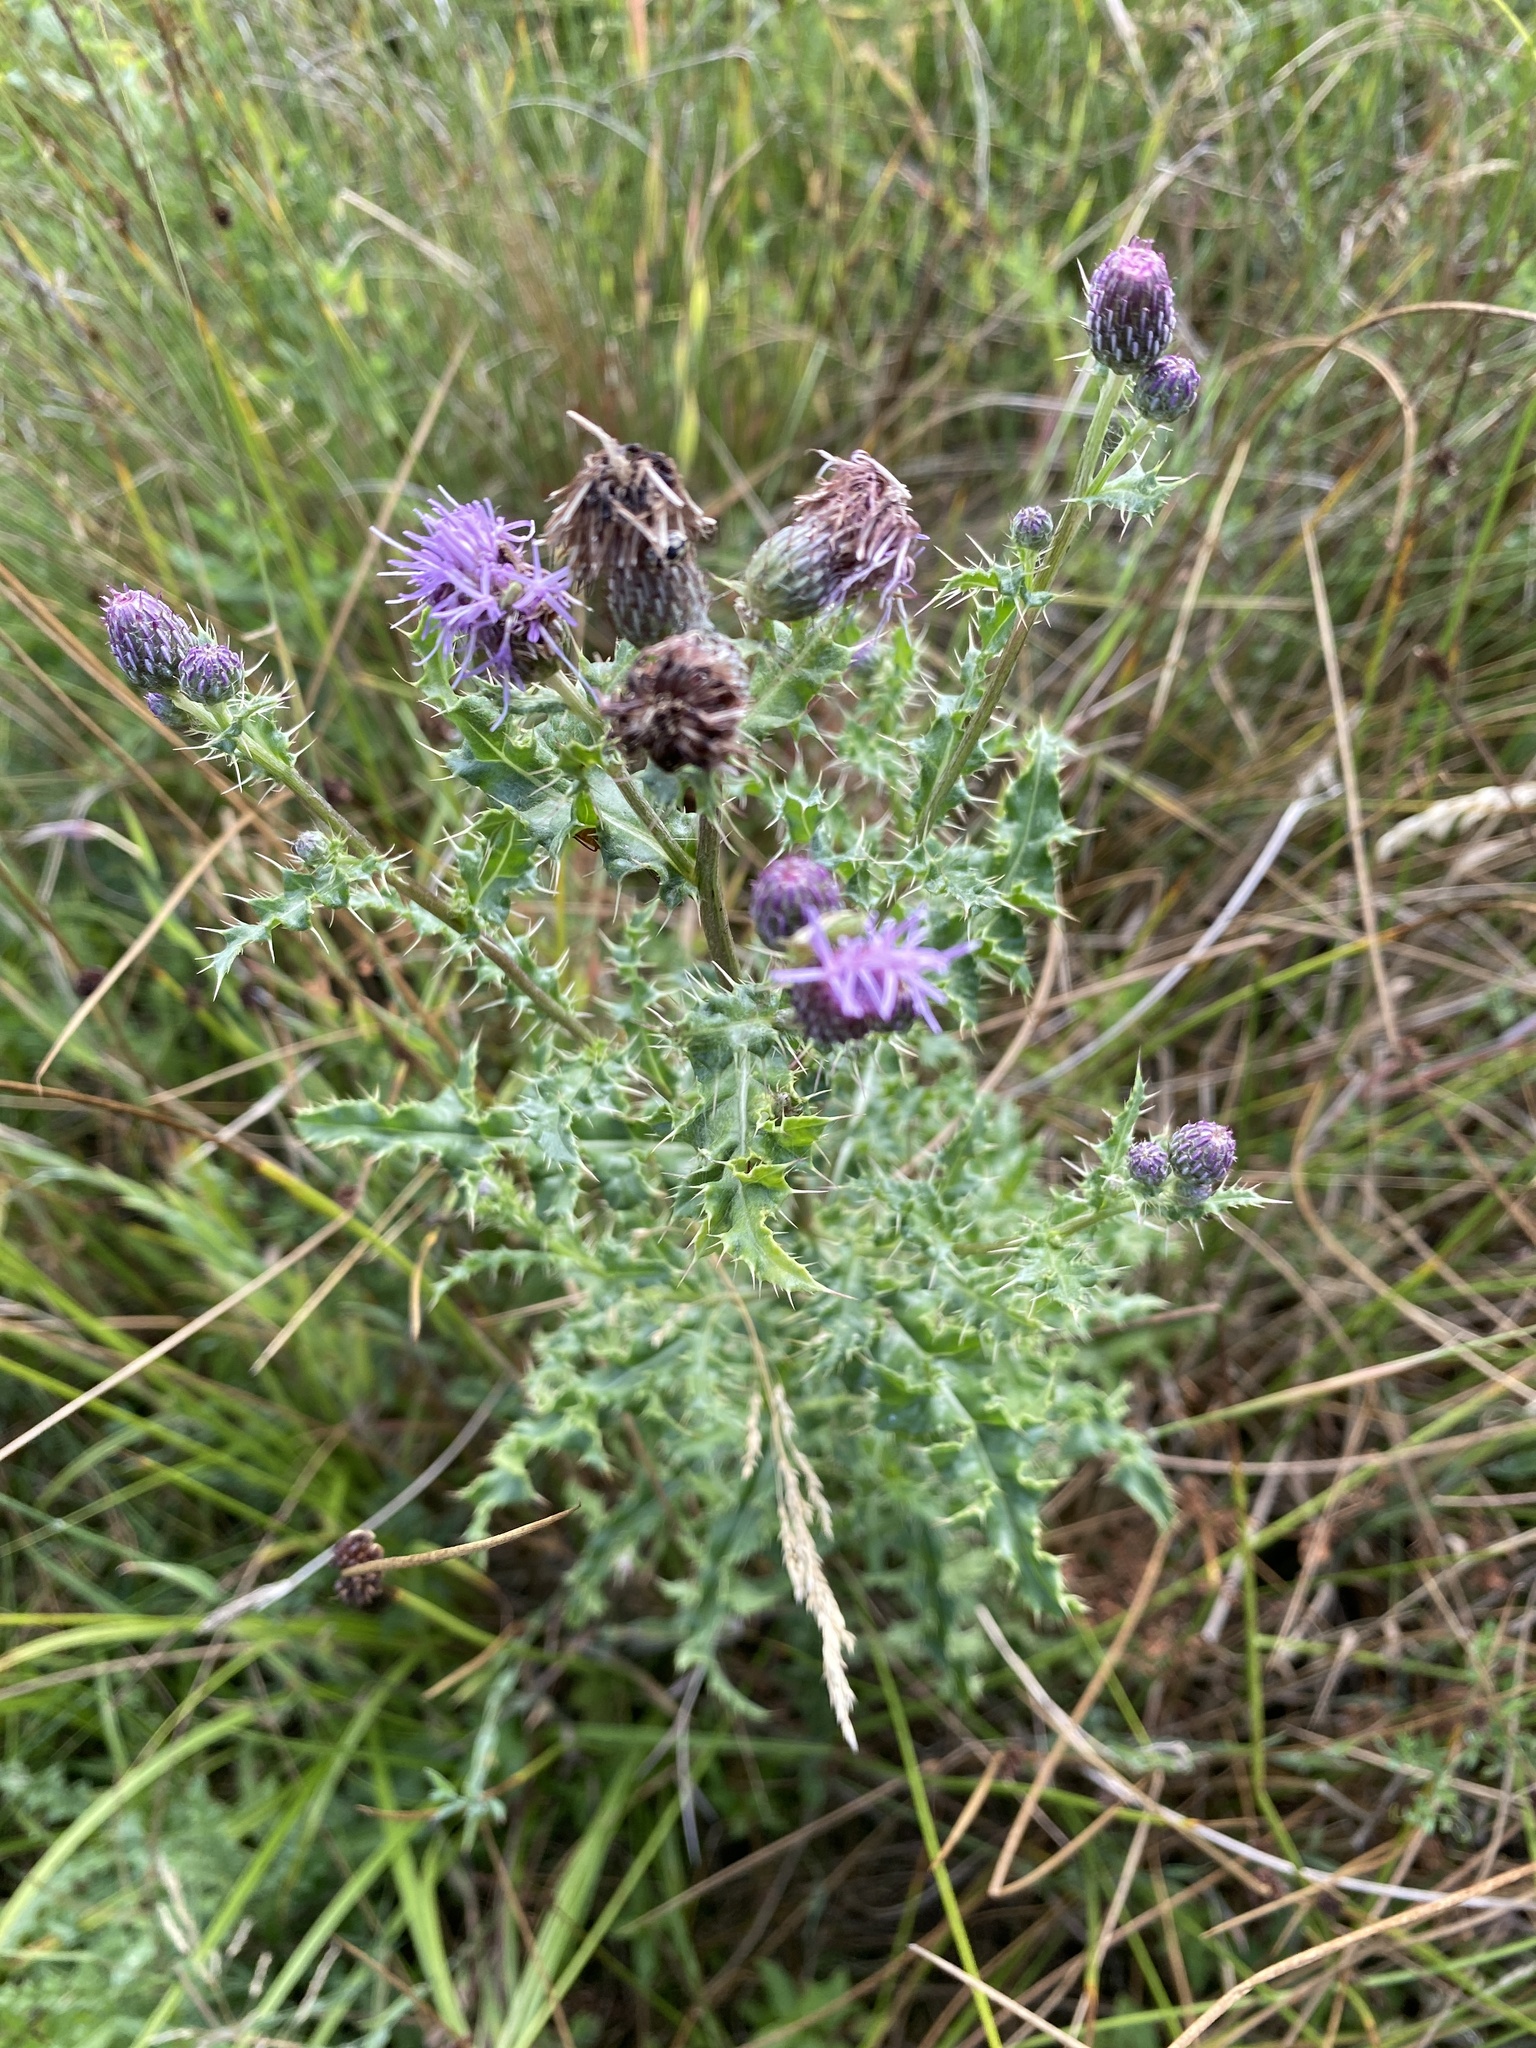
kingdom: Plantae
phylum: Tracheophyta
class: Magnoliopsida
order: Asterales
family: Asteraceae
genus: Cirsium
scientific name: Cirsium arvense
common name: Creeping thistle
